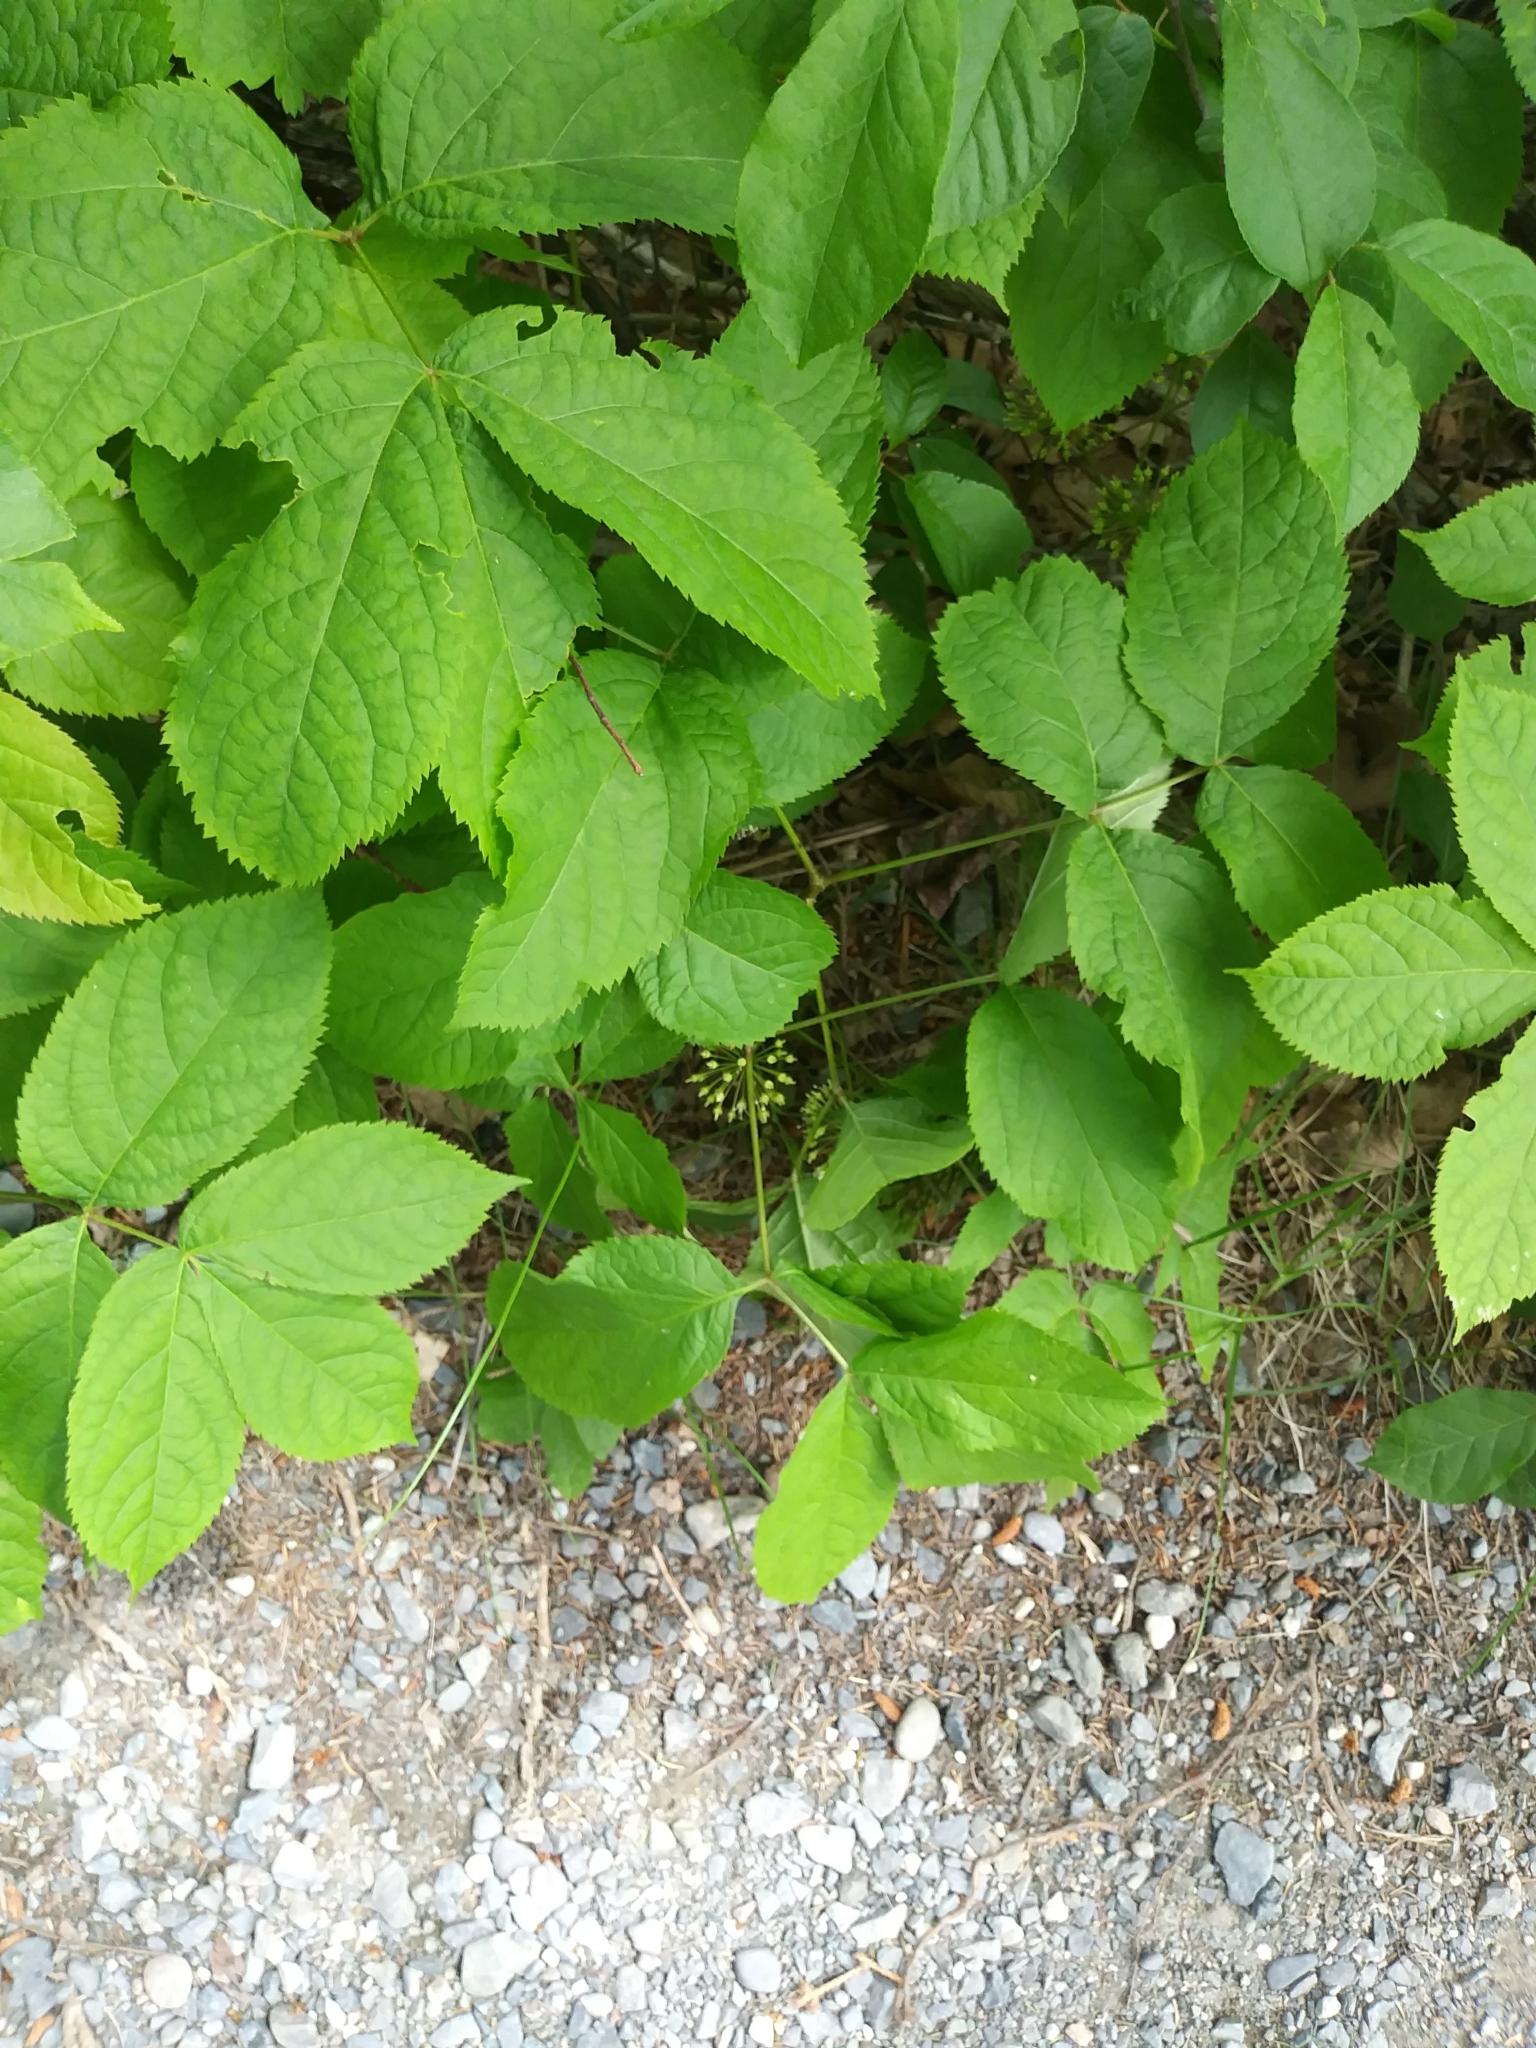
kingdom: Plantae
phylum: Tracheophyta
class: Magnoliopsida
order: Apiales
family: Araliaceae
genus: Aralia
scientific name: Aralia nudicaulis
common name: Wild sarsaparilla
